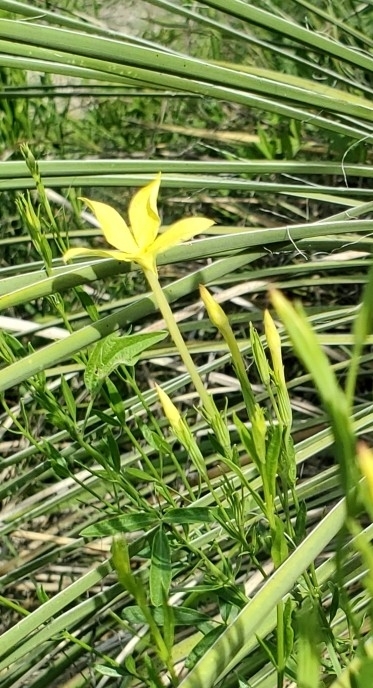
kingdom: Plantae
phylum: Tracheophyta
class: Magnoliopsida
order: Lamiales
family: Oleaceae
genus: Menodora
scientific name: Menodora longiflora
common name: Showy menodora
